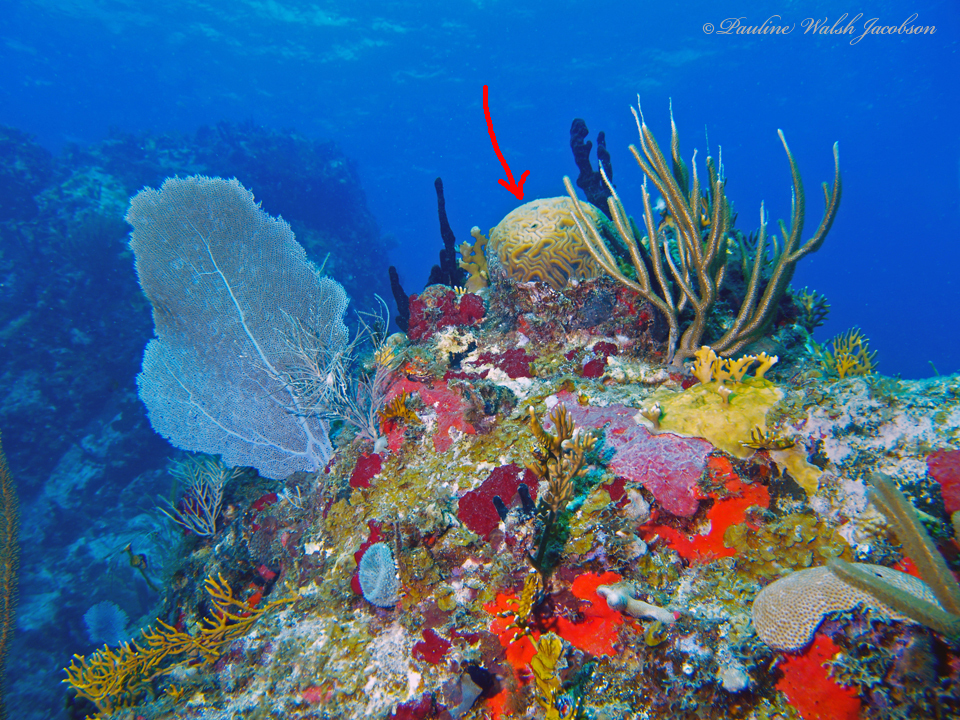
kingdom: Animalia
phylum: Cnidaria
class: Anthozoa
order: Scleractinia
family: Faviidae
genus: Diploria
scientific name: Diploria labyrinthiformis
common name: Grooved brain coral
